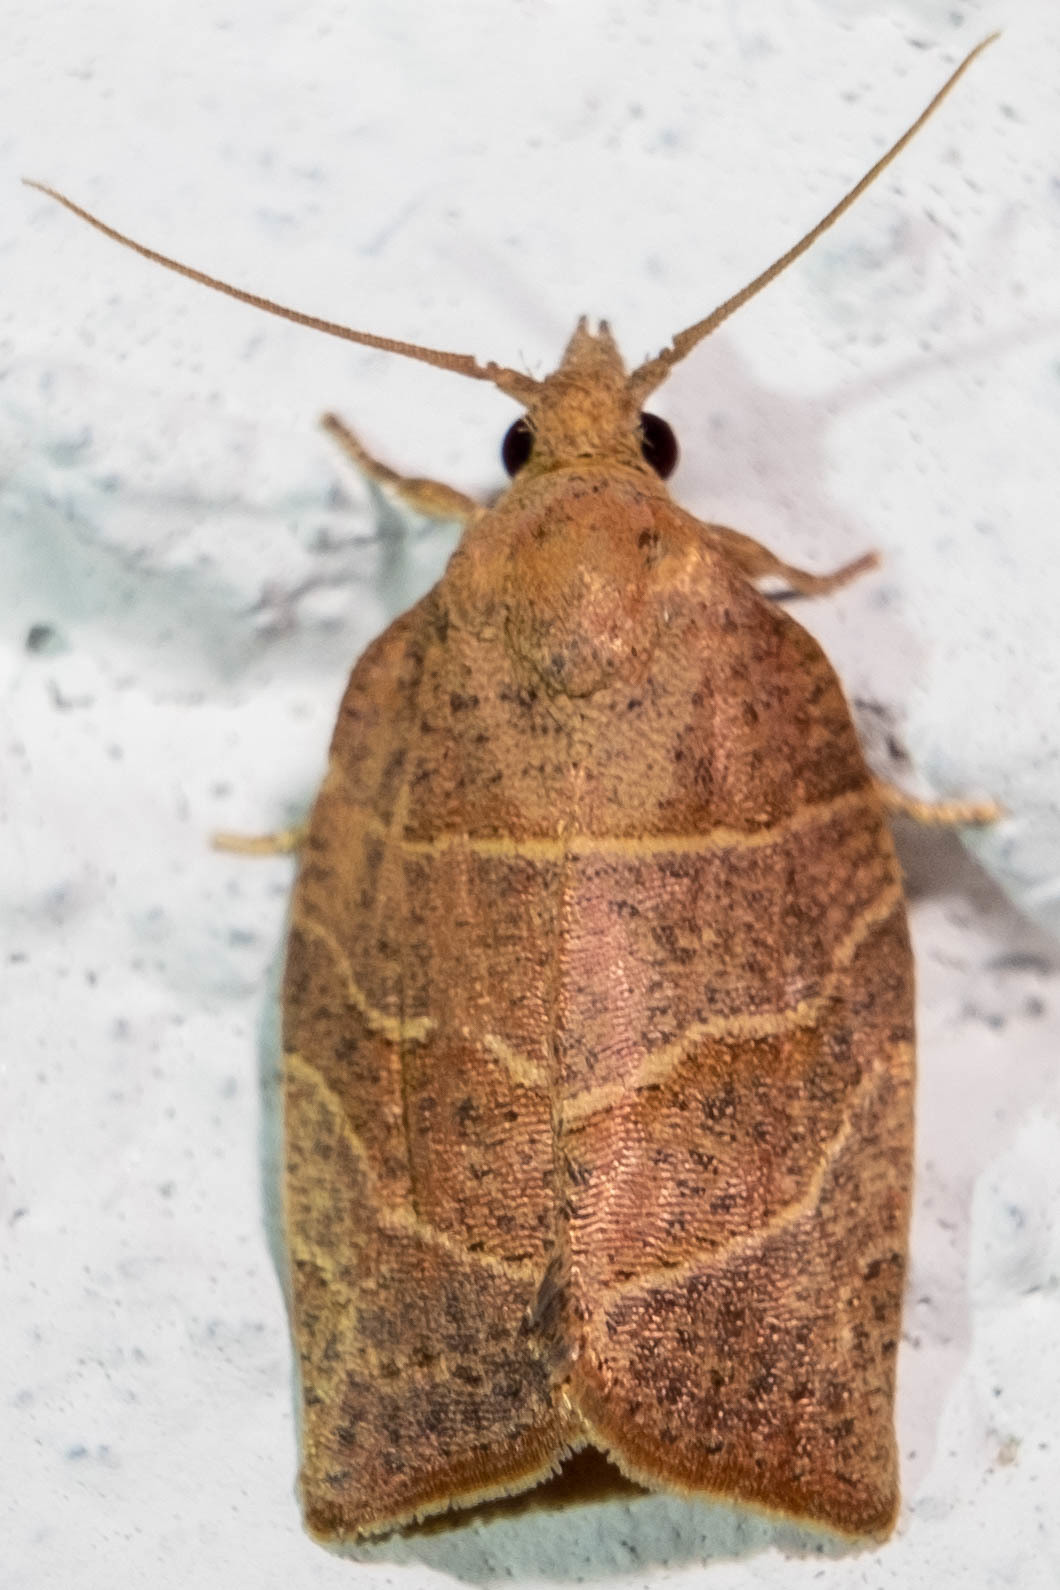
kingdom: Animalia
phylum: Arthropoda
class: Insecta
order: Lepidoptera
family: Tortricidae
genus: Pandemis
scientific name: Pandemis limitata
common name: Three-lined leafroller moth
